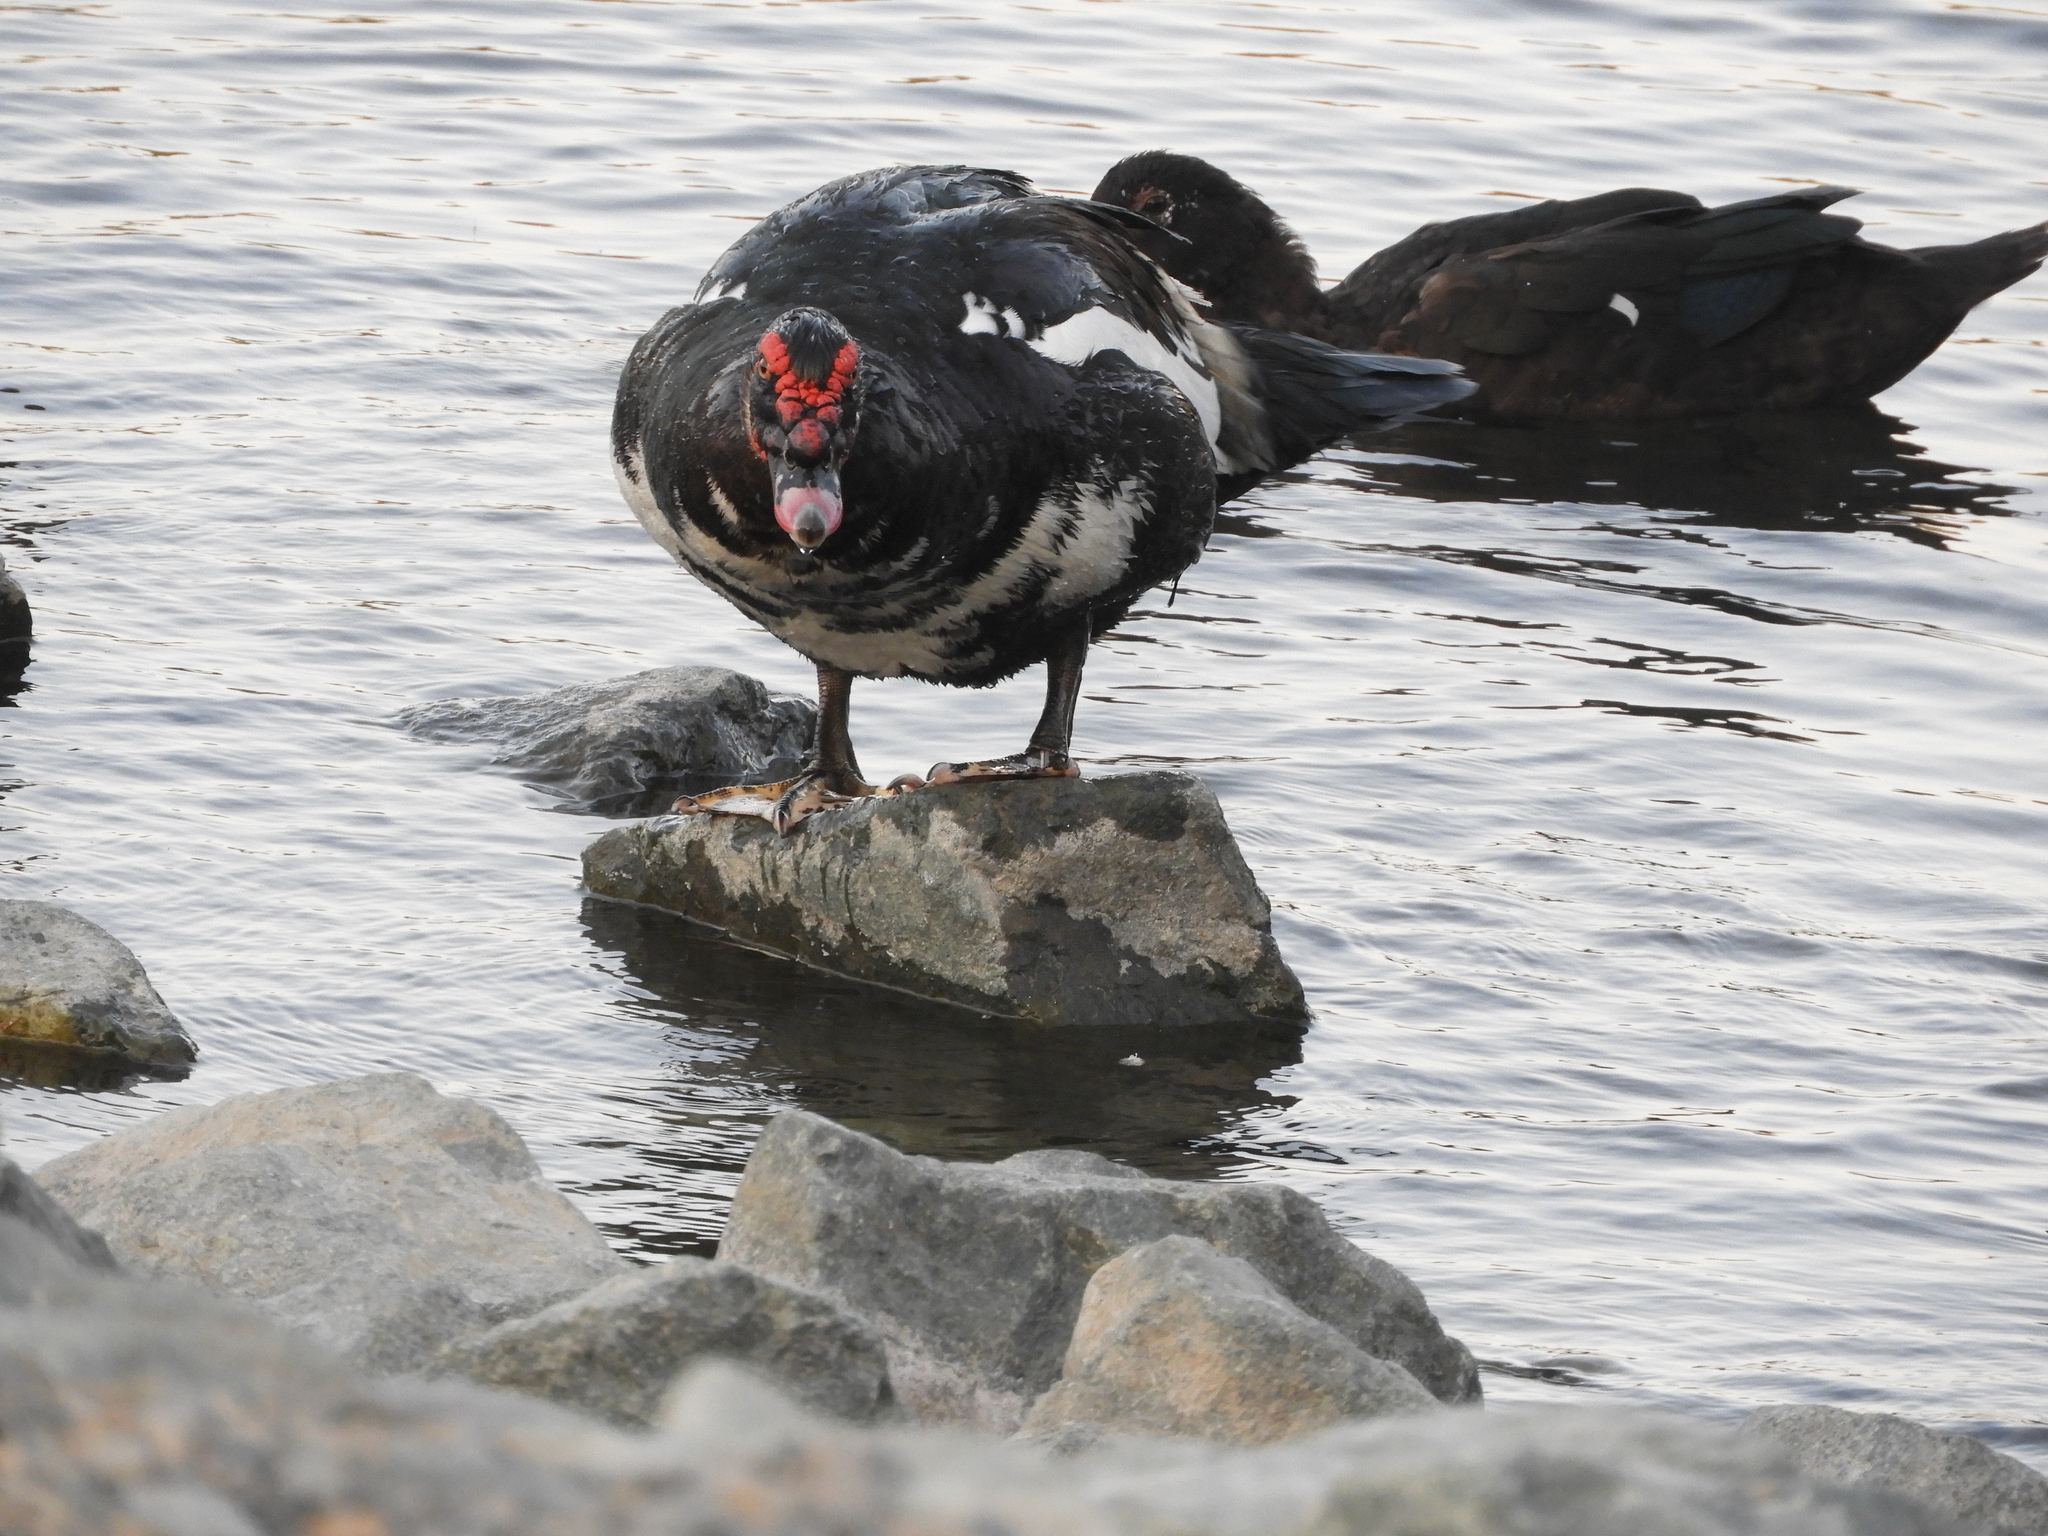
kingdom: Animalia
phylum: Chordata
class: Aves
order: Anseriformes
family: Anatidae
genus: Cairina
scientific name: Cairina moschata
